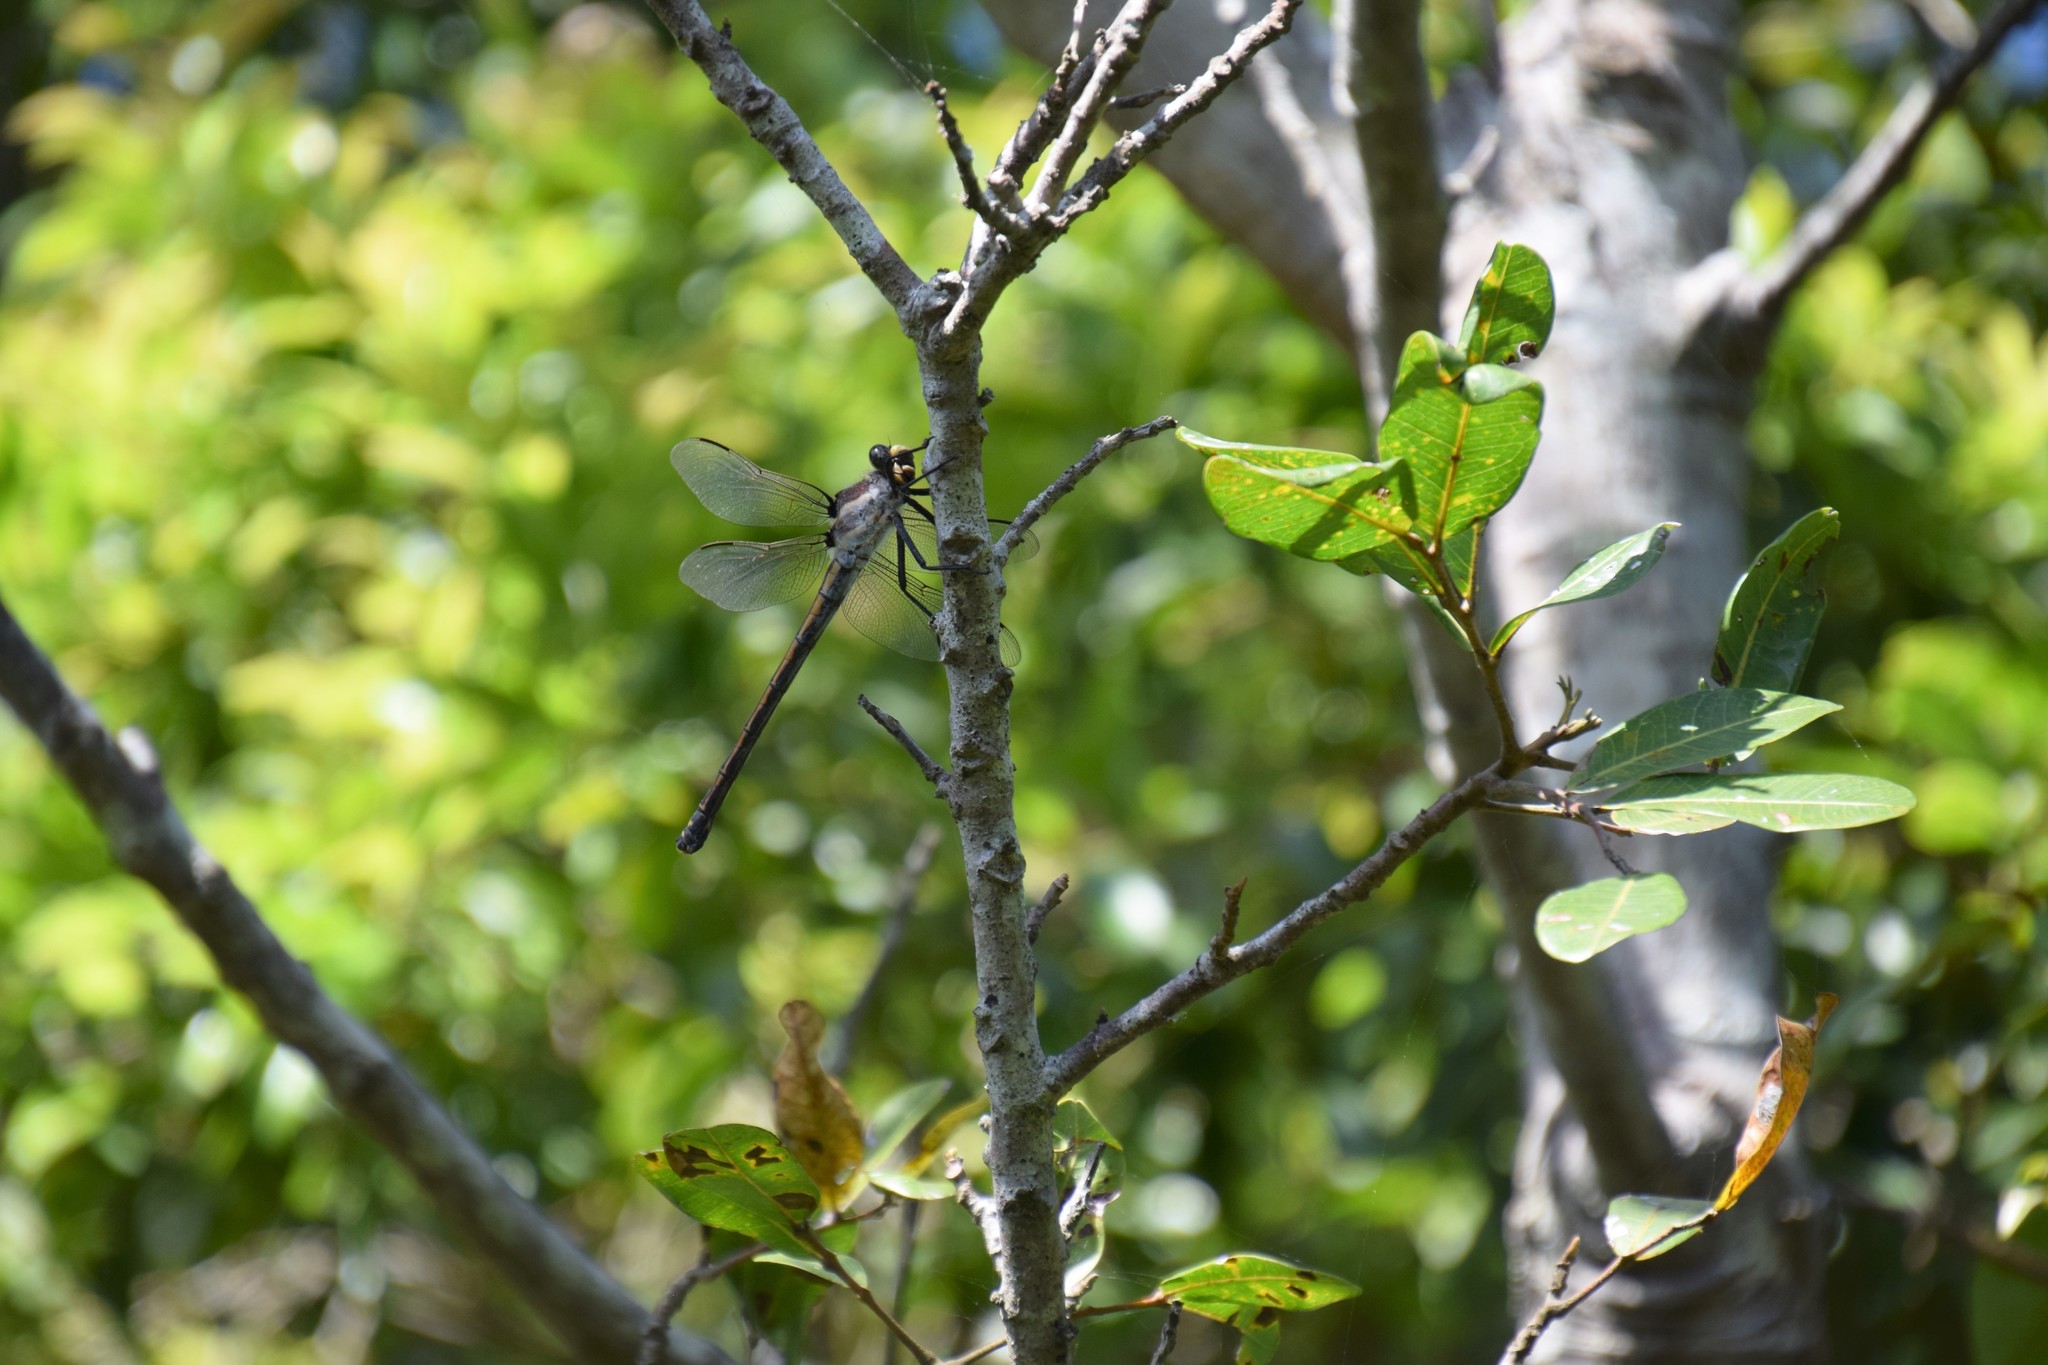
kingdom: Animalia
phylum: Arthropoda
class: Insecta
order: Odonata
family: Petaluridae
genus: Petalura
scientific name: Petalura gigantea
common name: South-eastern petaltail
